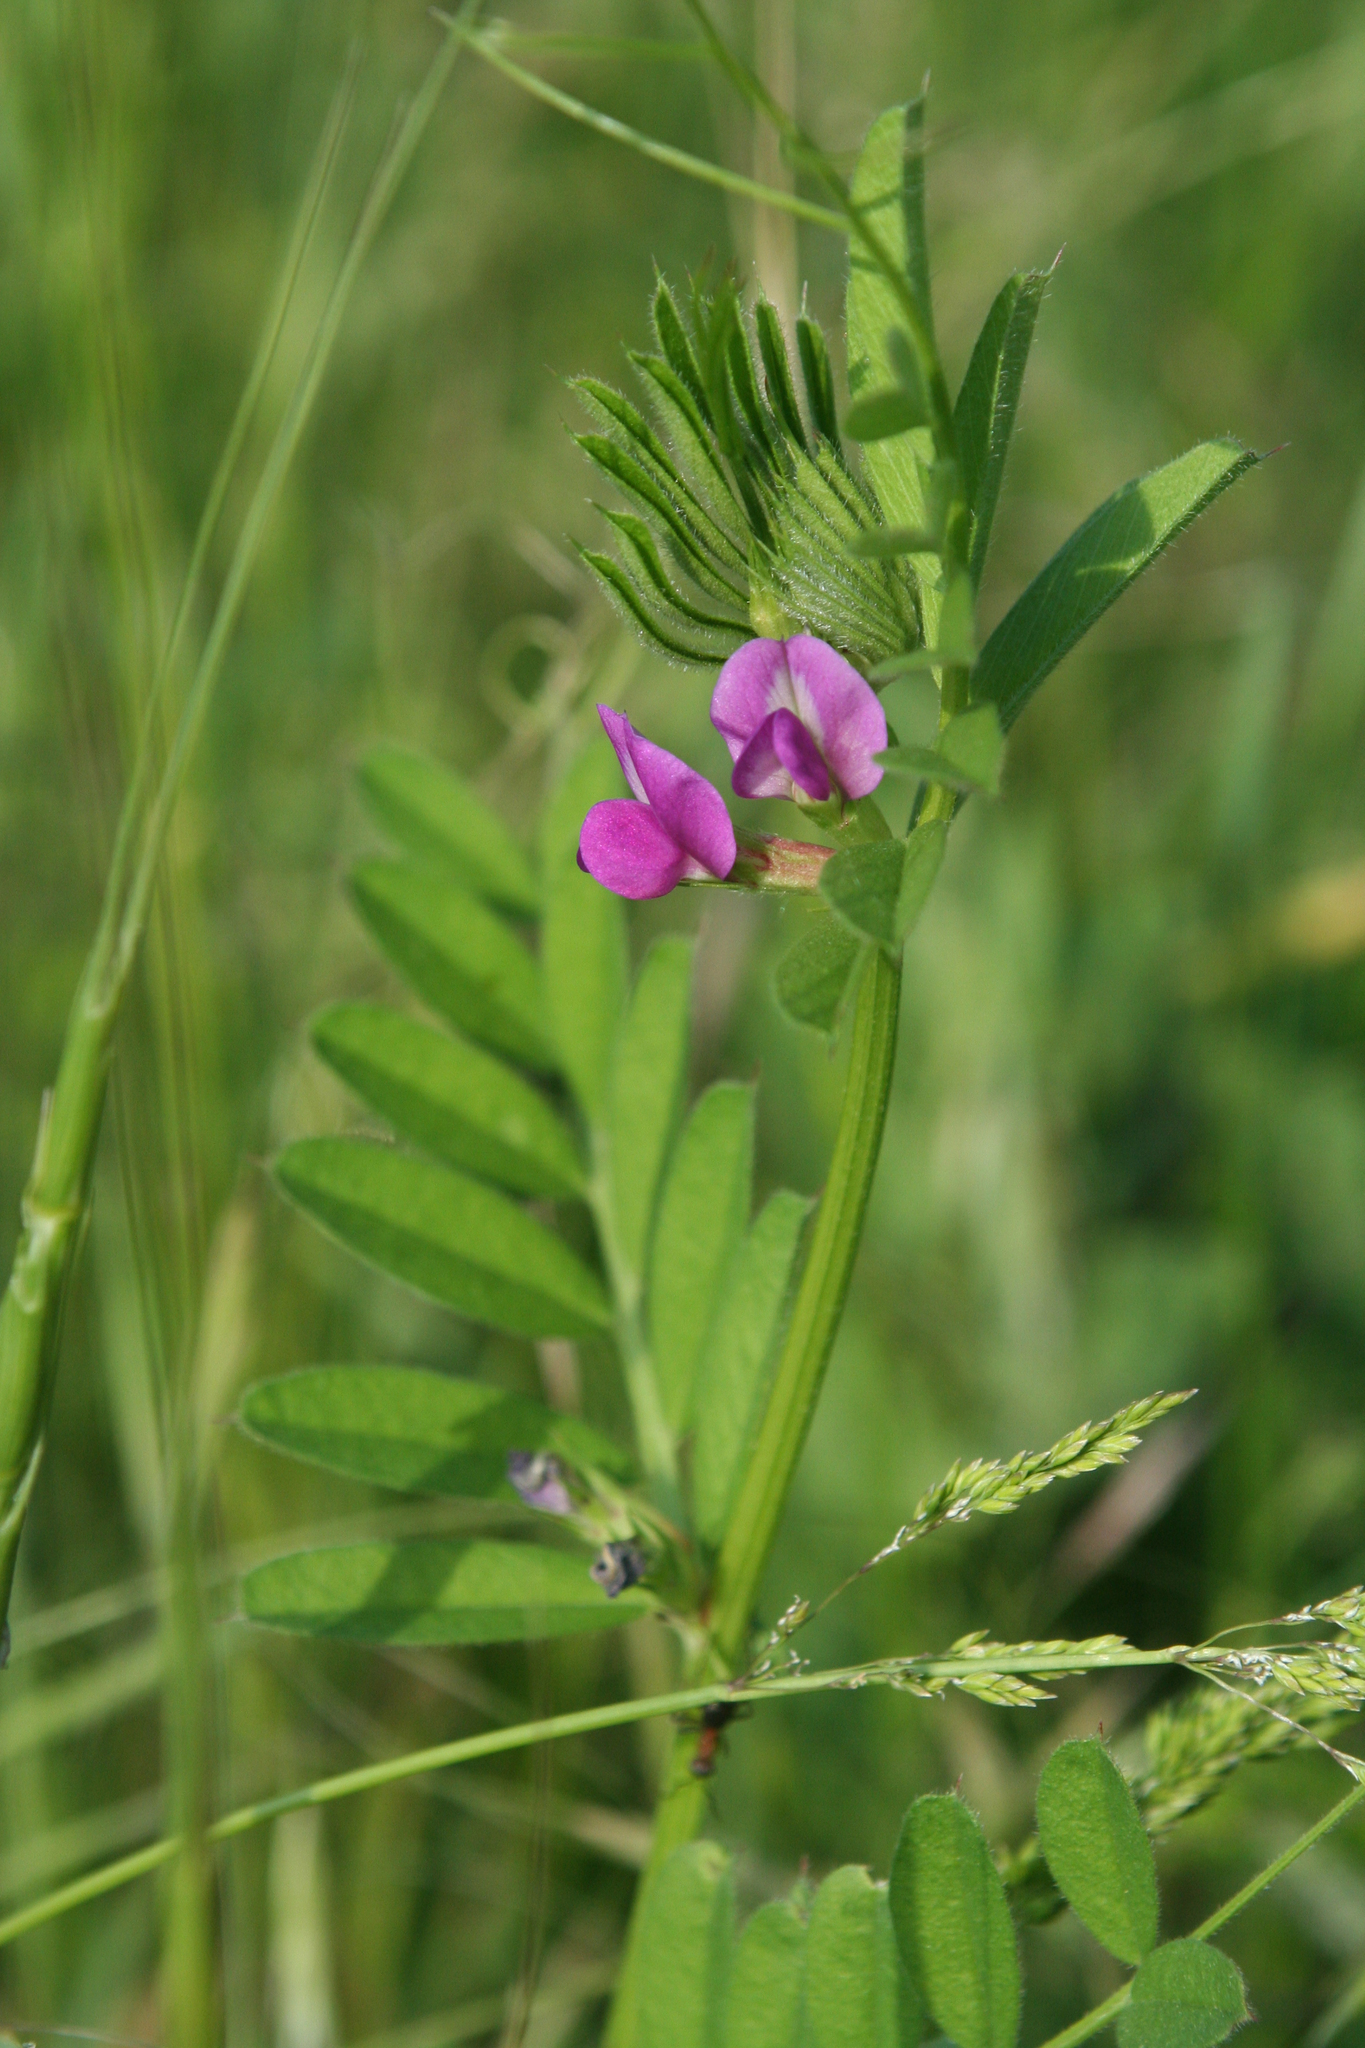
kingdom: Plantae
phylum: Tracheophyta
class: Magnoliopsida
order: Fabales
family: Fabaceae
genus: Vicia
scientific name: Vicia sativa
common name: Garden vetch
